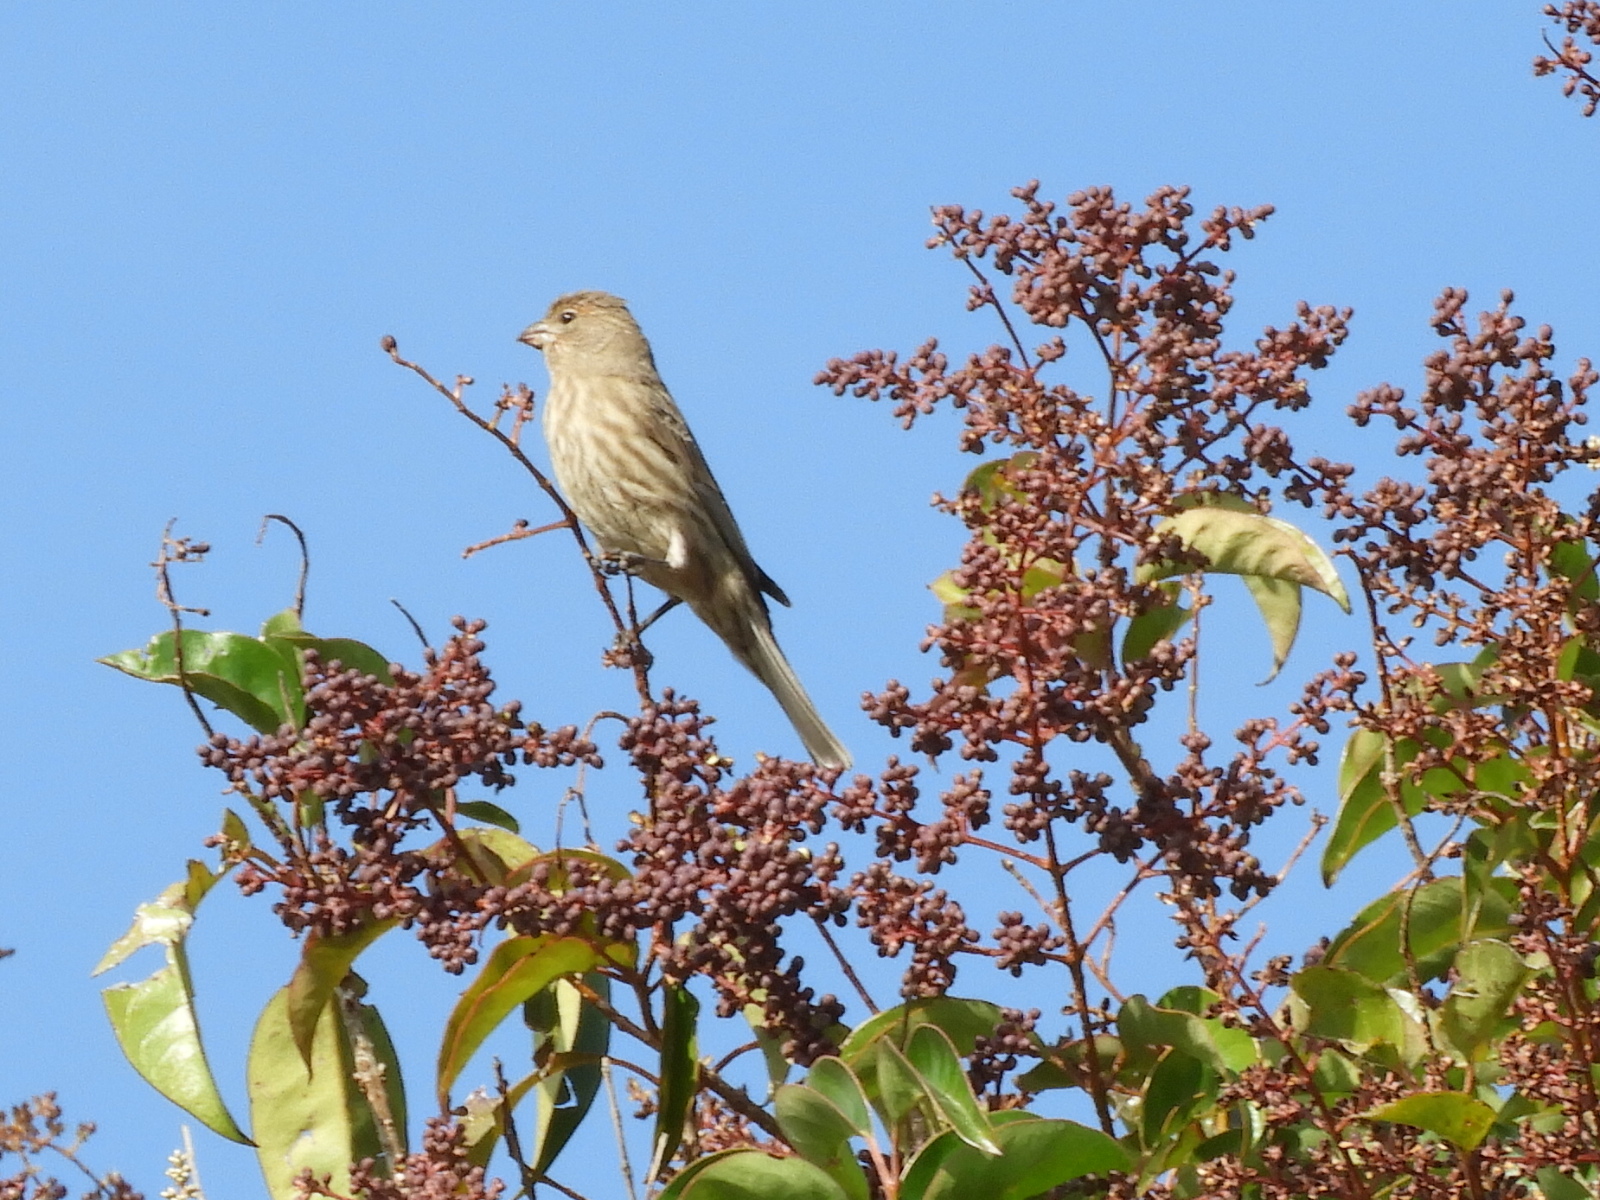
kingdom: Animalia
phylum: Chordata
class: Aves
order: Passeriformes
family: Fringillidae
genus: Haemorhous
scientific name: Haemorhous mexicanus
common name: House finch
